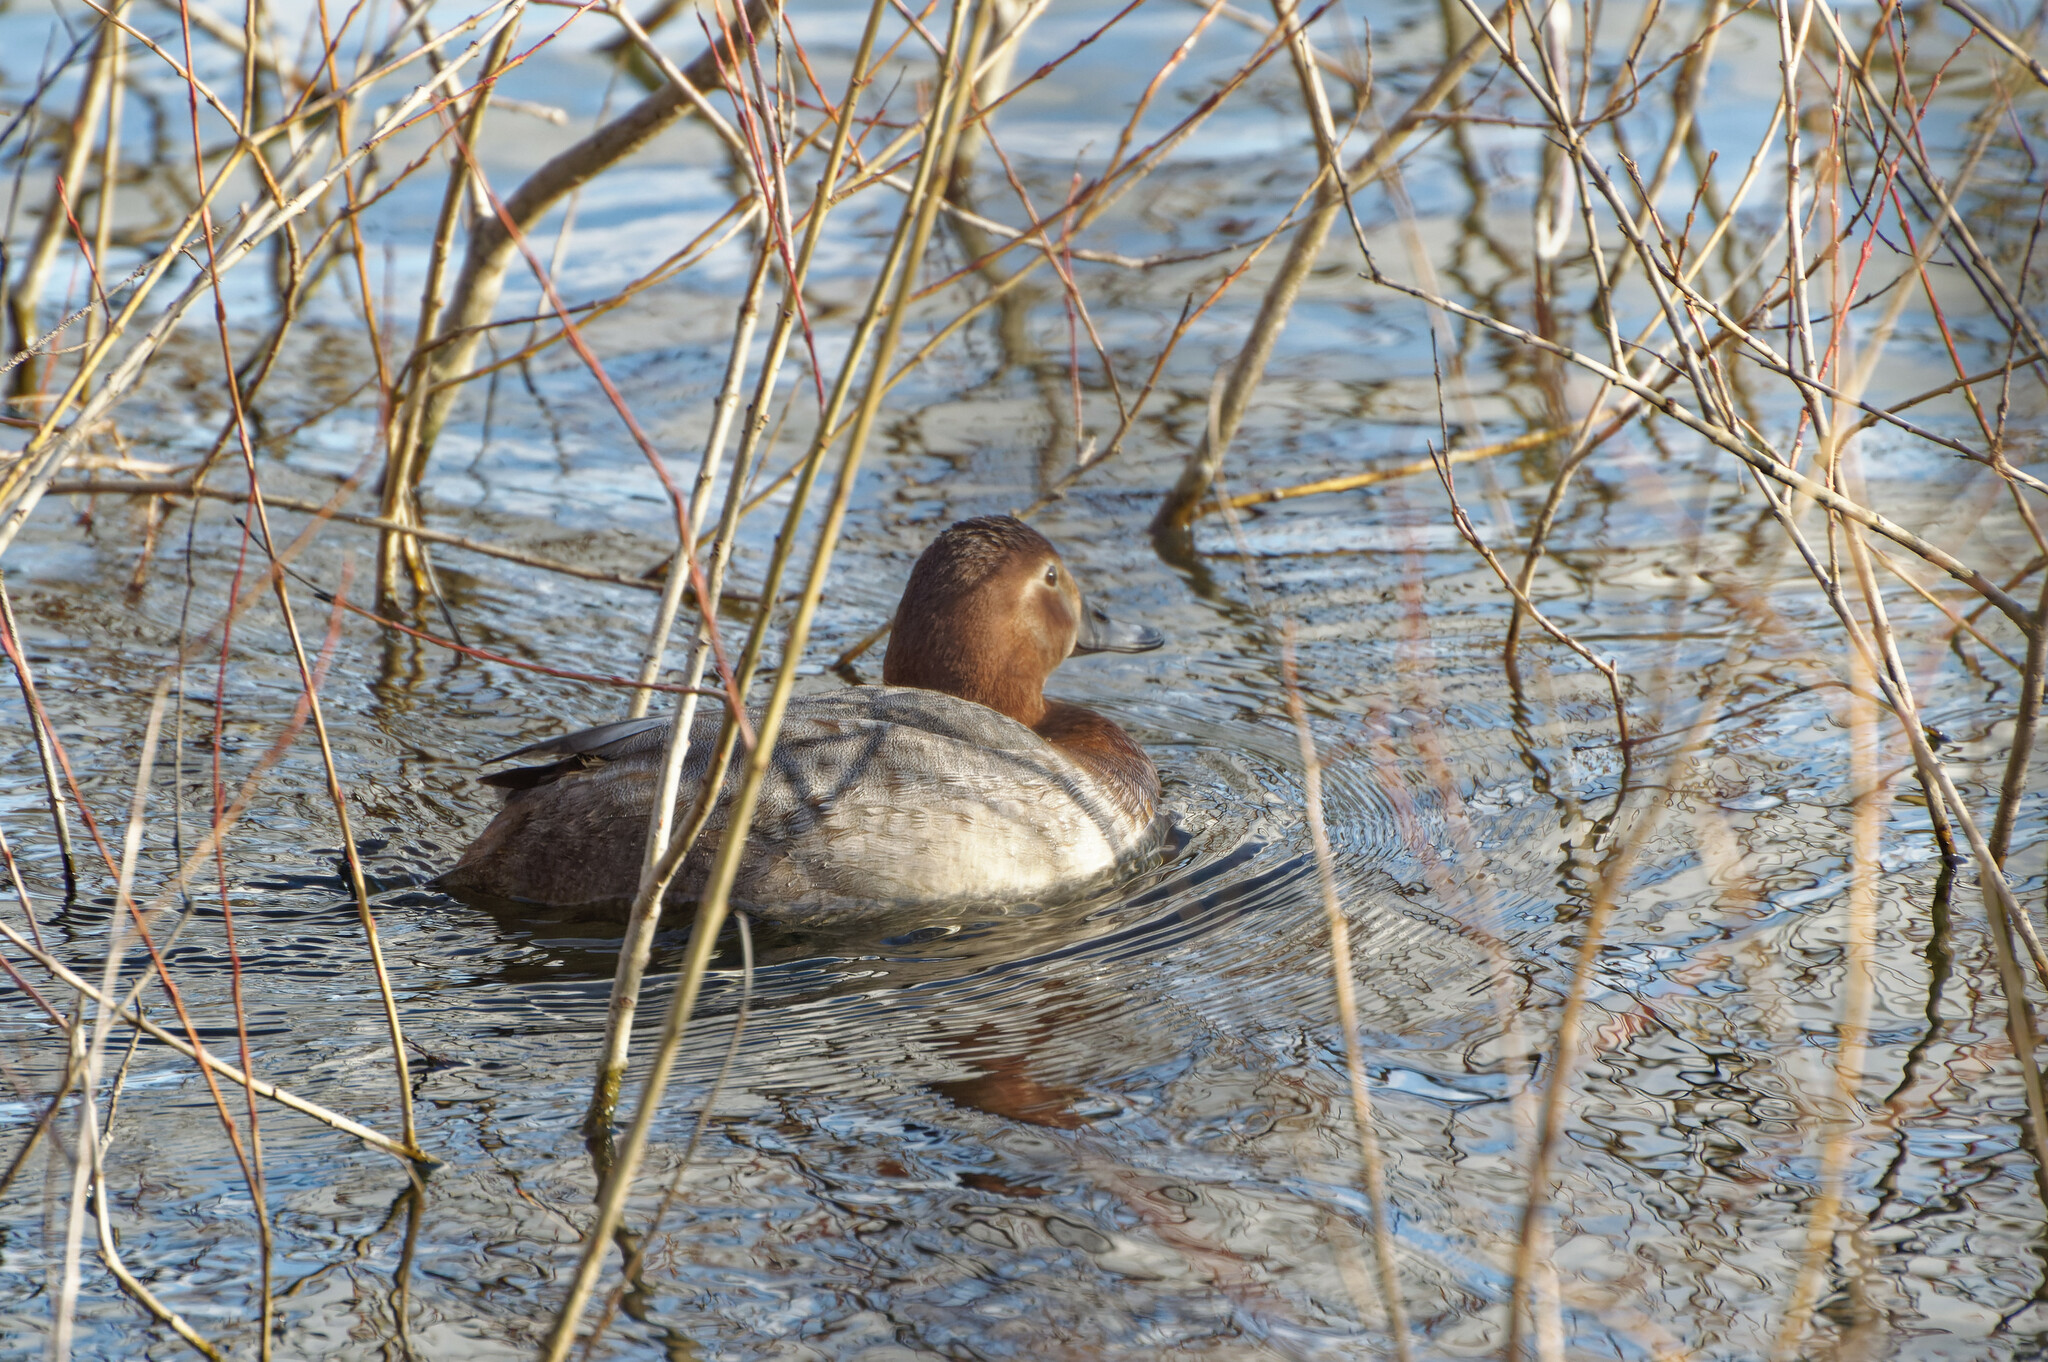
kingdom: Animalia
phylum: Chordata
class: Aves
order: Anseriformes
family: Anatidae
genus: Aythya
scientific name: Aythya ferina
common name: Common pochard
